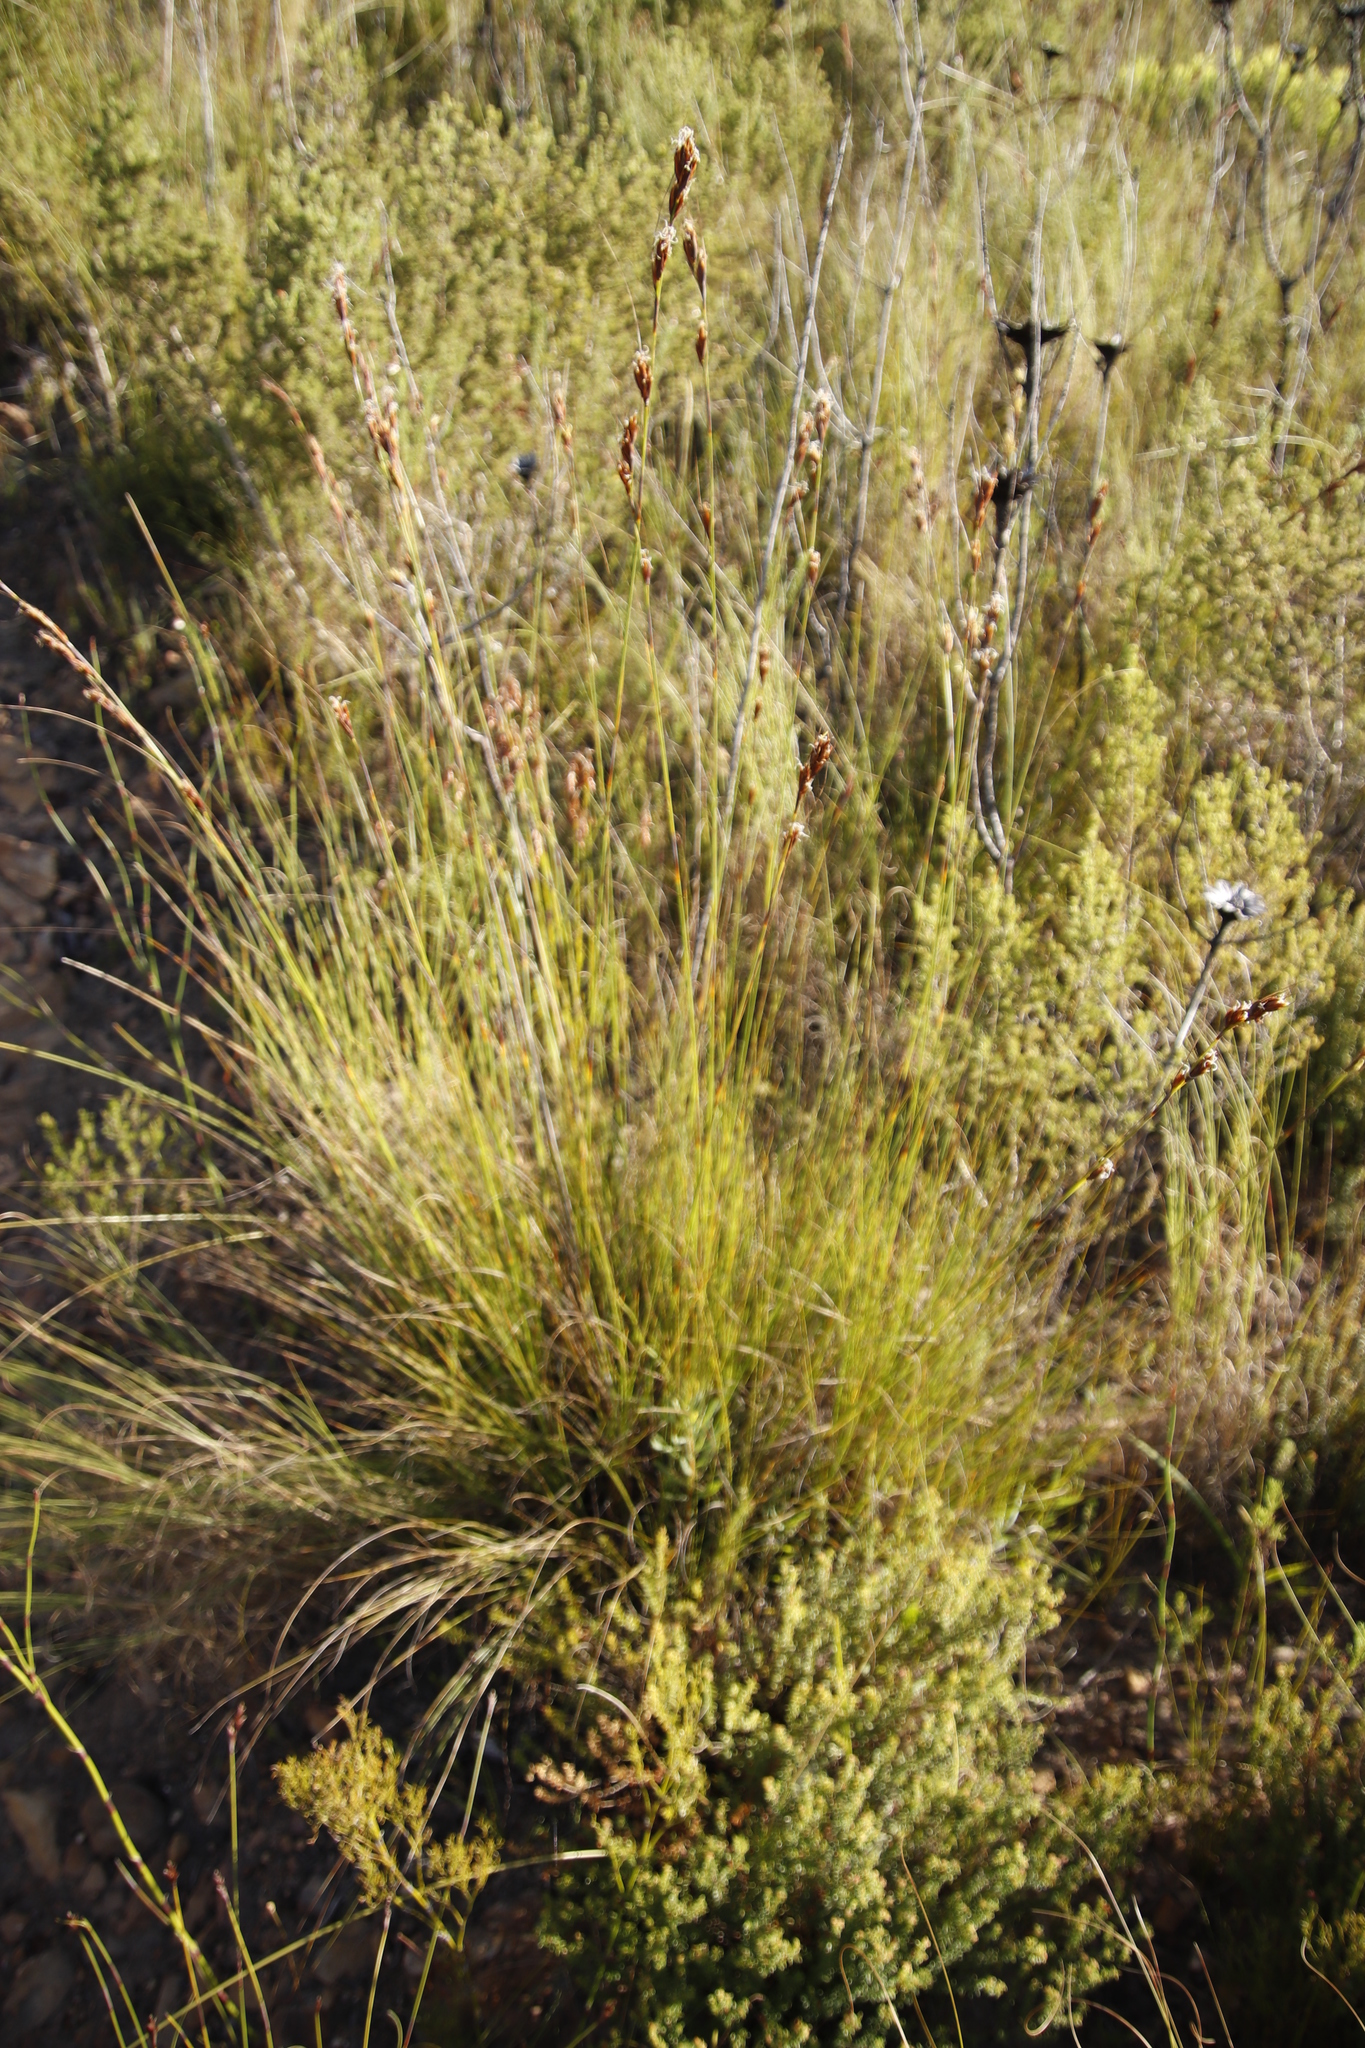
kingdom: Plantae
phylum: Tracheophyta
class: Liliopsida
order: Poales
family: Cyperaceae
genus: Tetraria
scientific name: Tetraria ustulata
